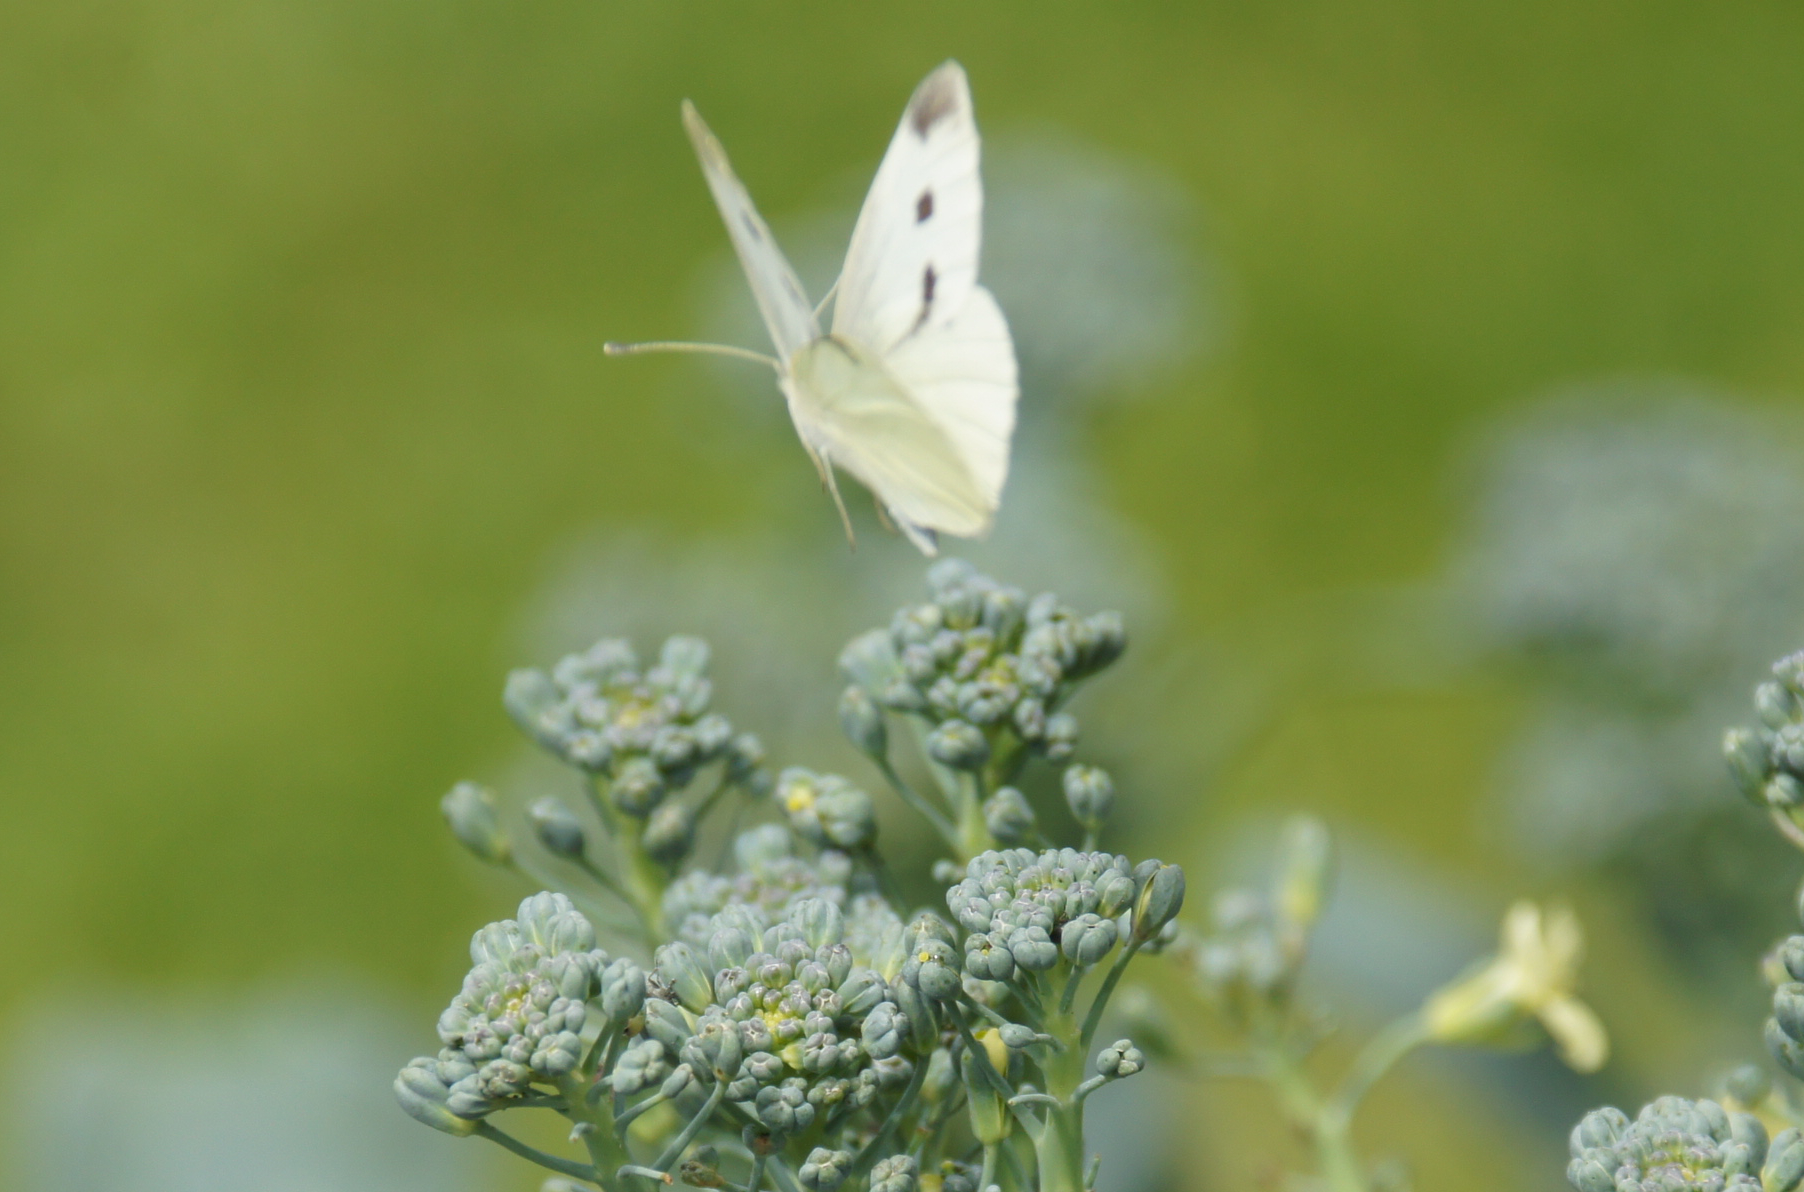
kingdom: Animalia
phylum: Arthropoda
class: Insecta
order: Lepidoptera
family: Pieridae
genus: Pieris
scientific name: Pieris rapae
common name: Small white
